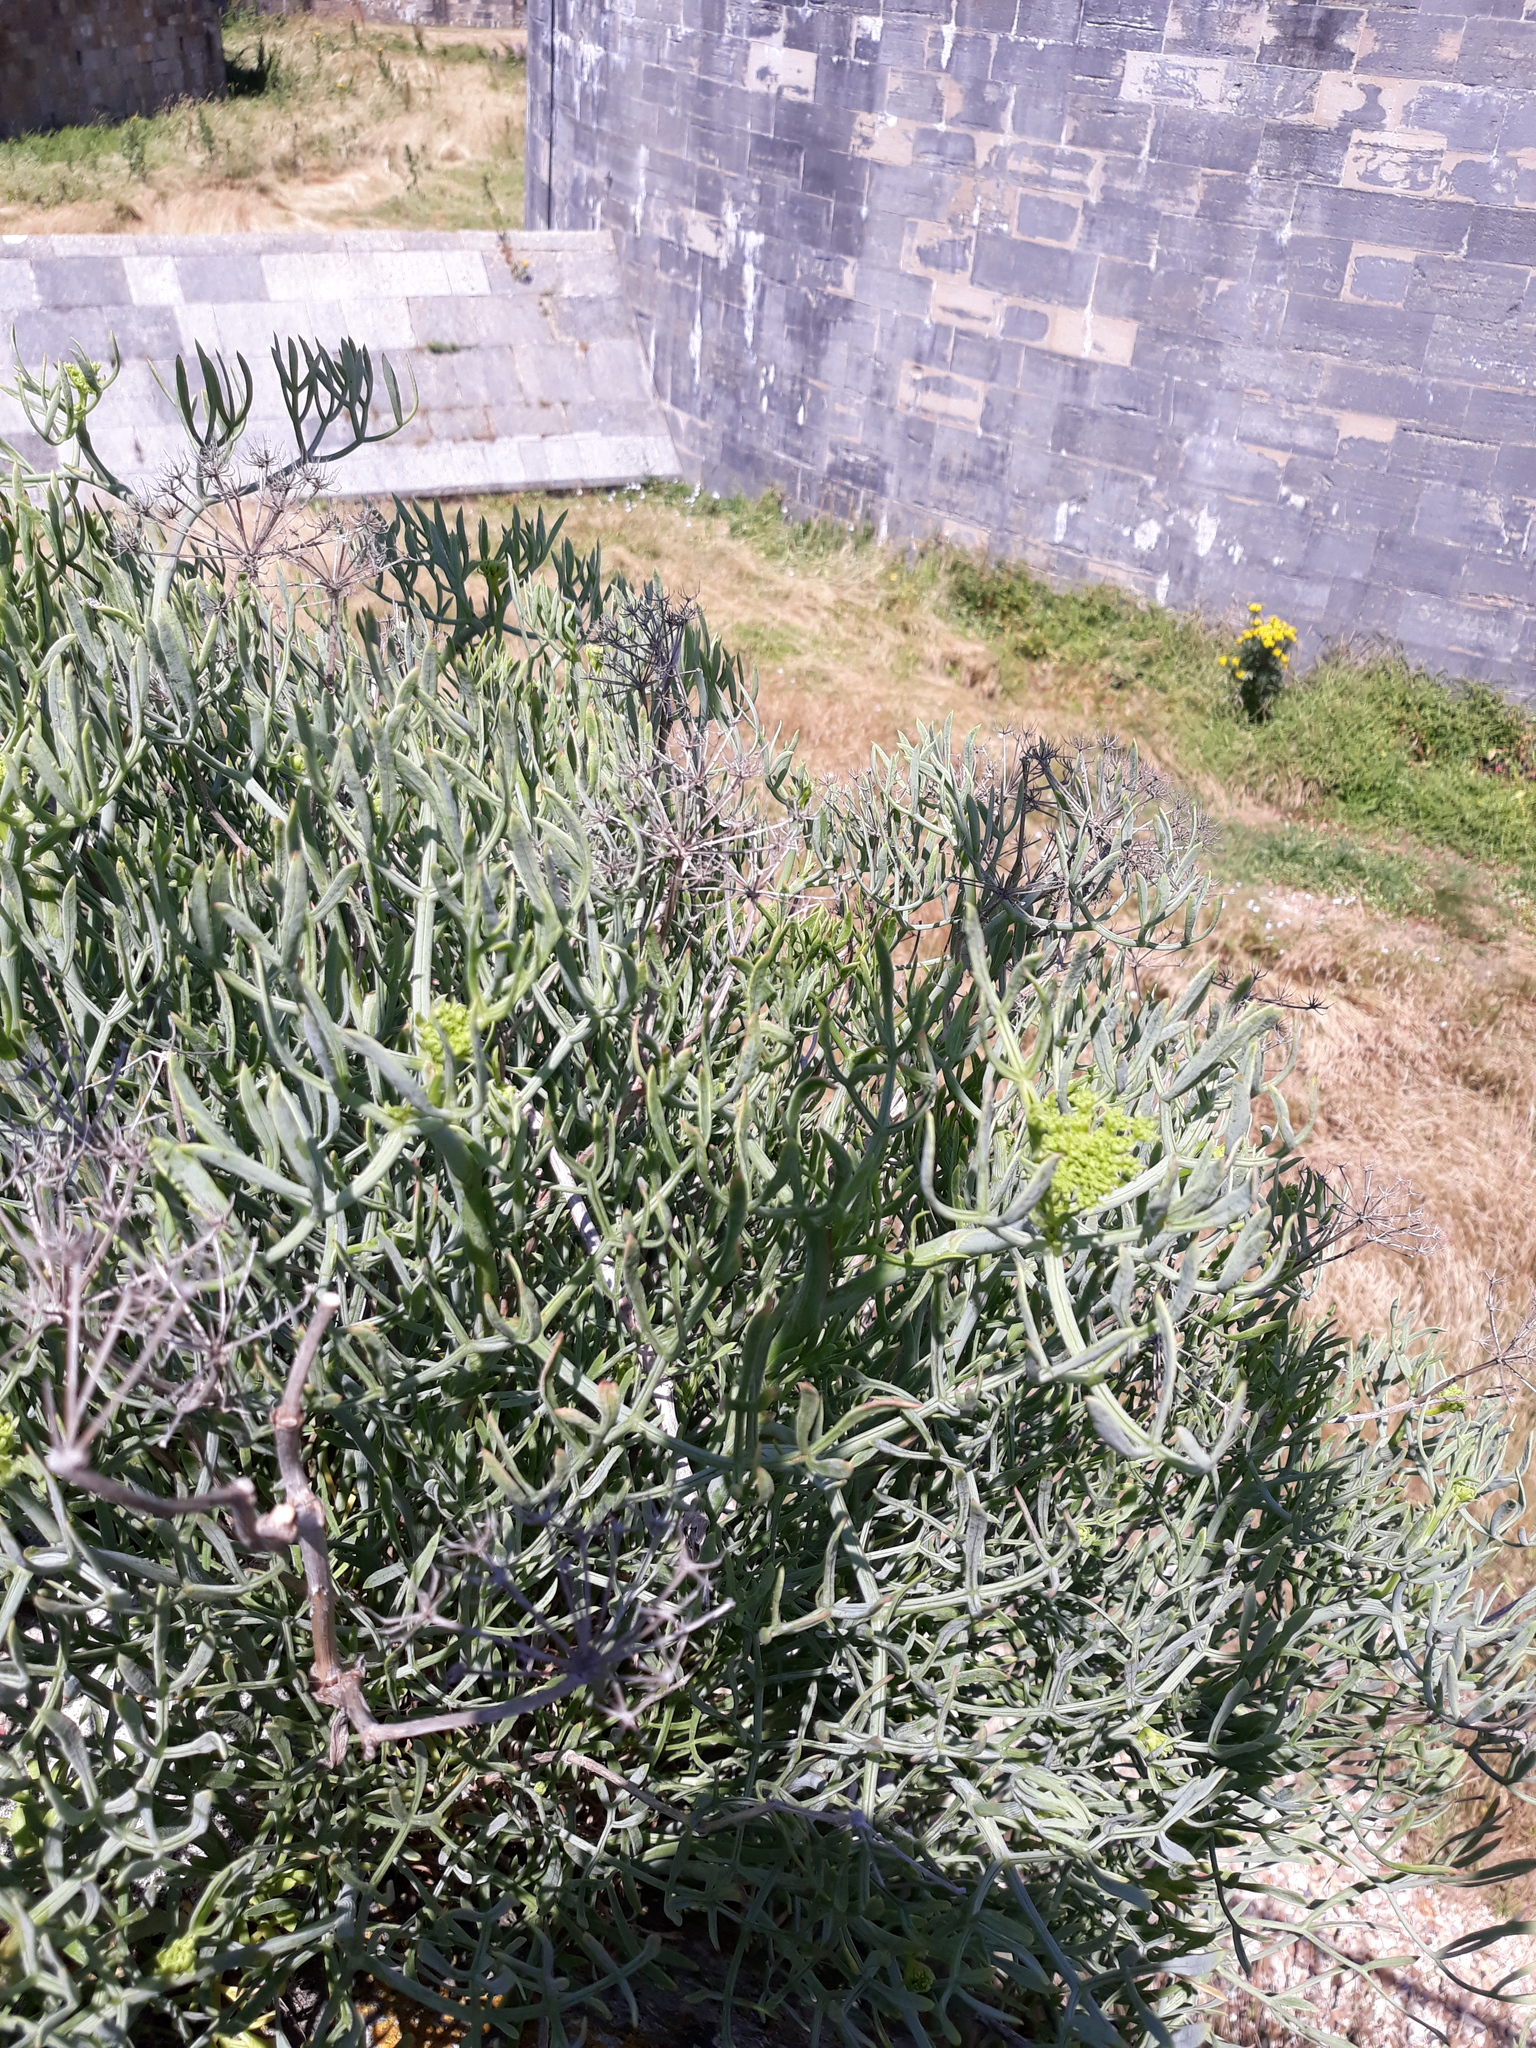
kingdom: Plantae
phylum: Tracheophyta
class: Magnoliopsida
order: Apiales
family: Apiaceae
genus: Crithmum
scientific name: Crithmum maritimum
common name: Rock samphire
